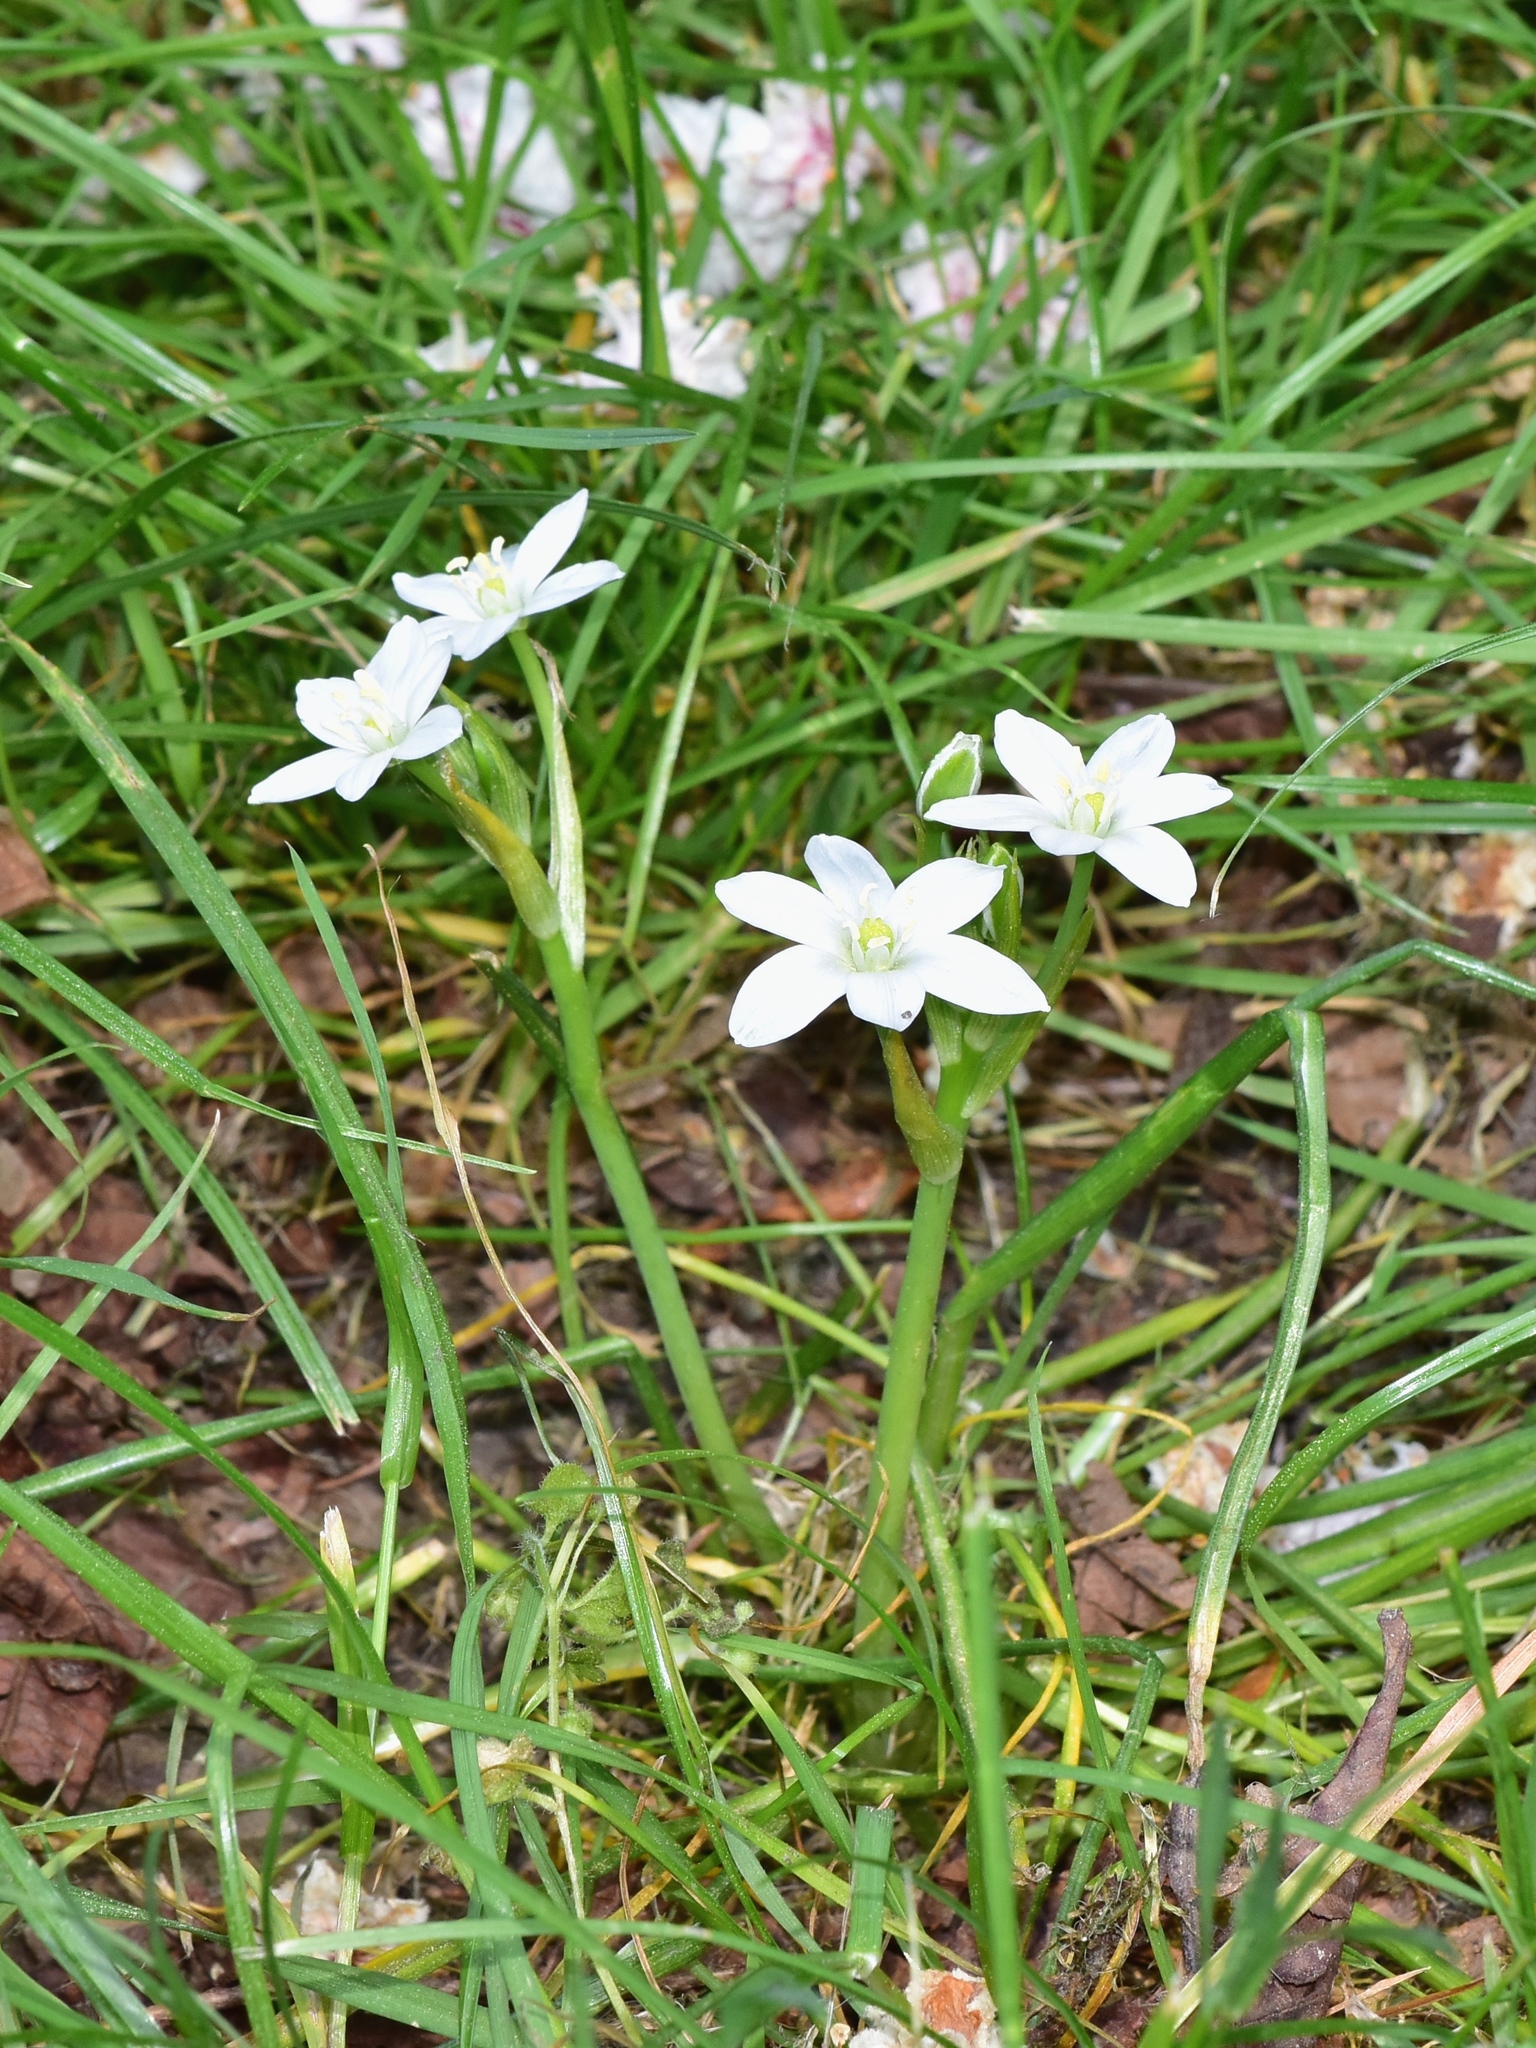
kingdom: Plantae
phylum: Tracheophyta
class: Liliopsida
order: Asparagales
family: Asparagaceae
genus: Ornithogalum
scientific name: Ornithogalum umbellatum
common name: Garden star-of-bethlehem
